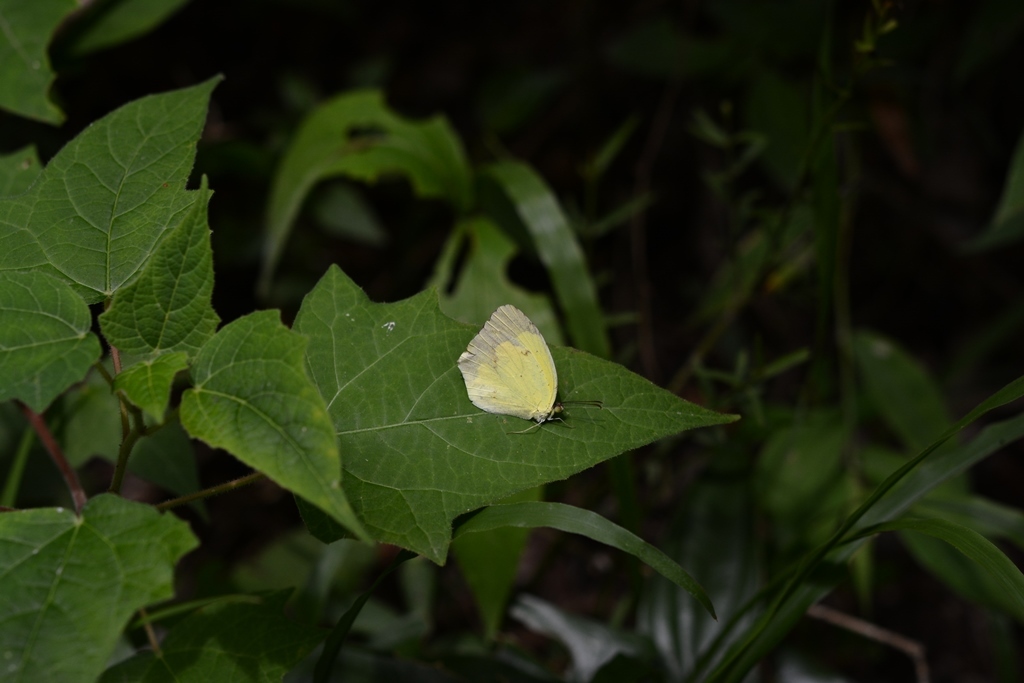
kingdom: Animalia
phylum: Arthropoda
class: Insecta
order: Lepidoptera
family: Pieridae
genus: Abaeis
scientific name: Abaeis
